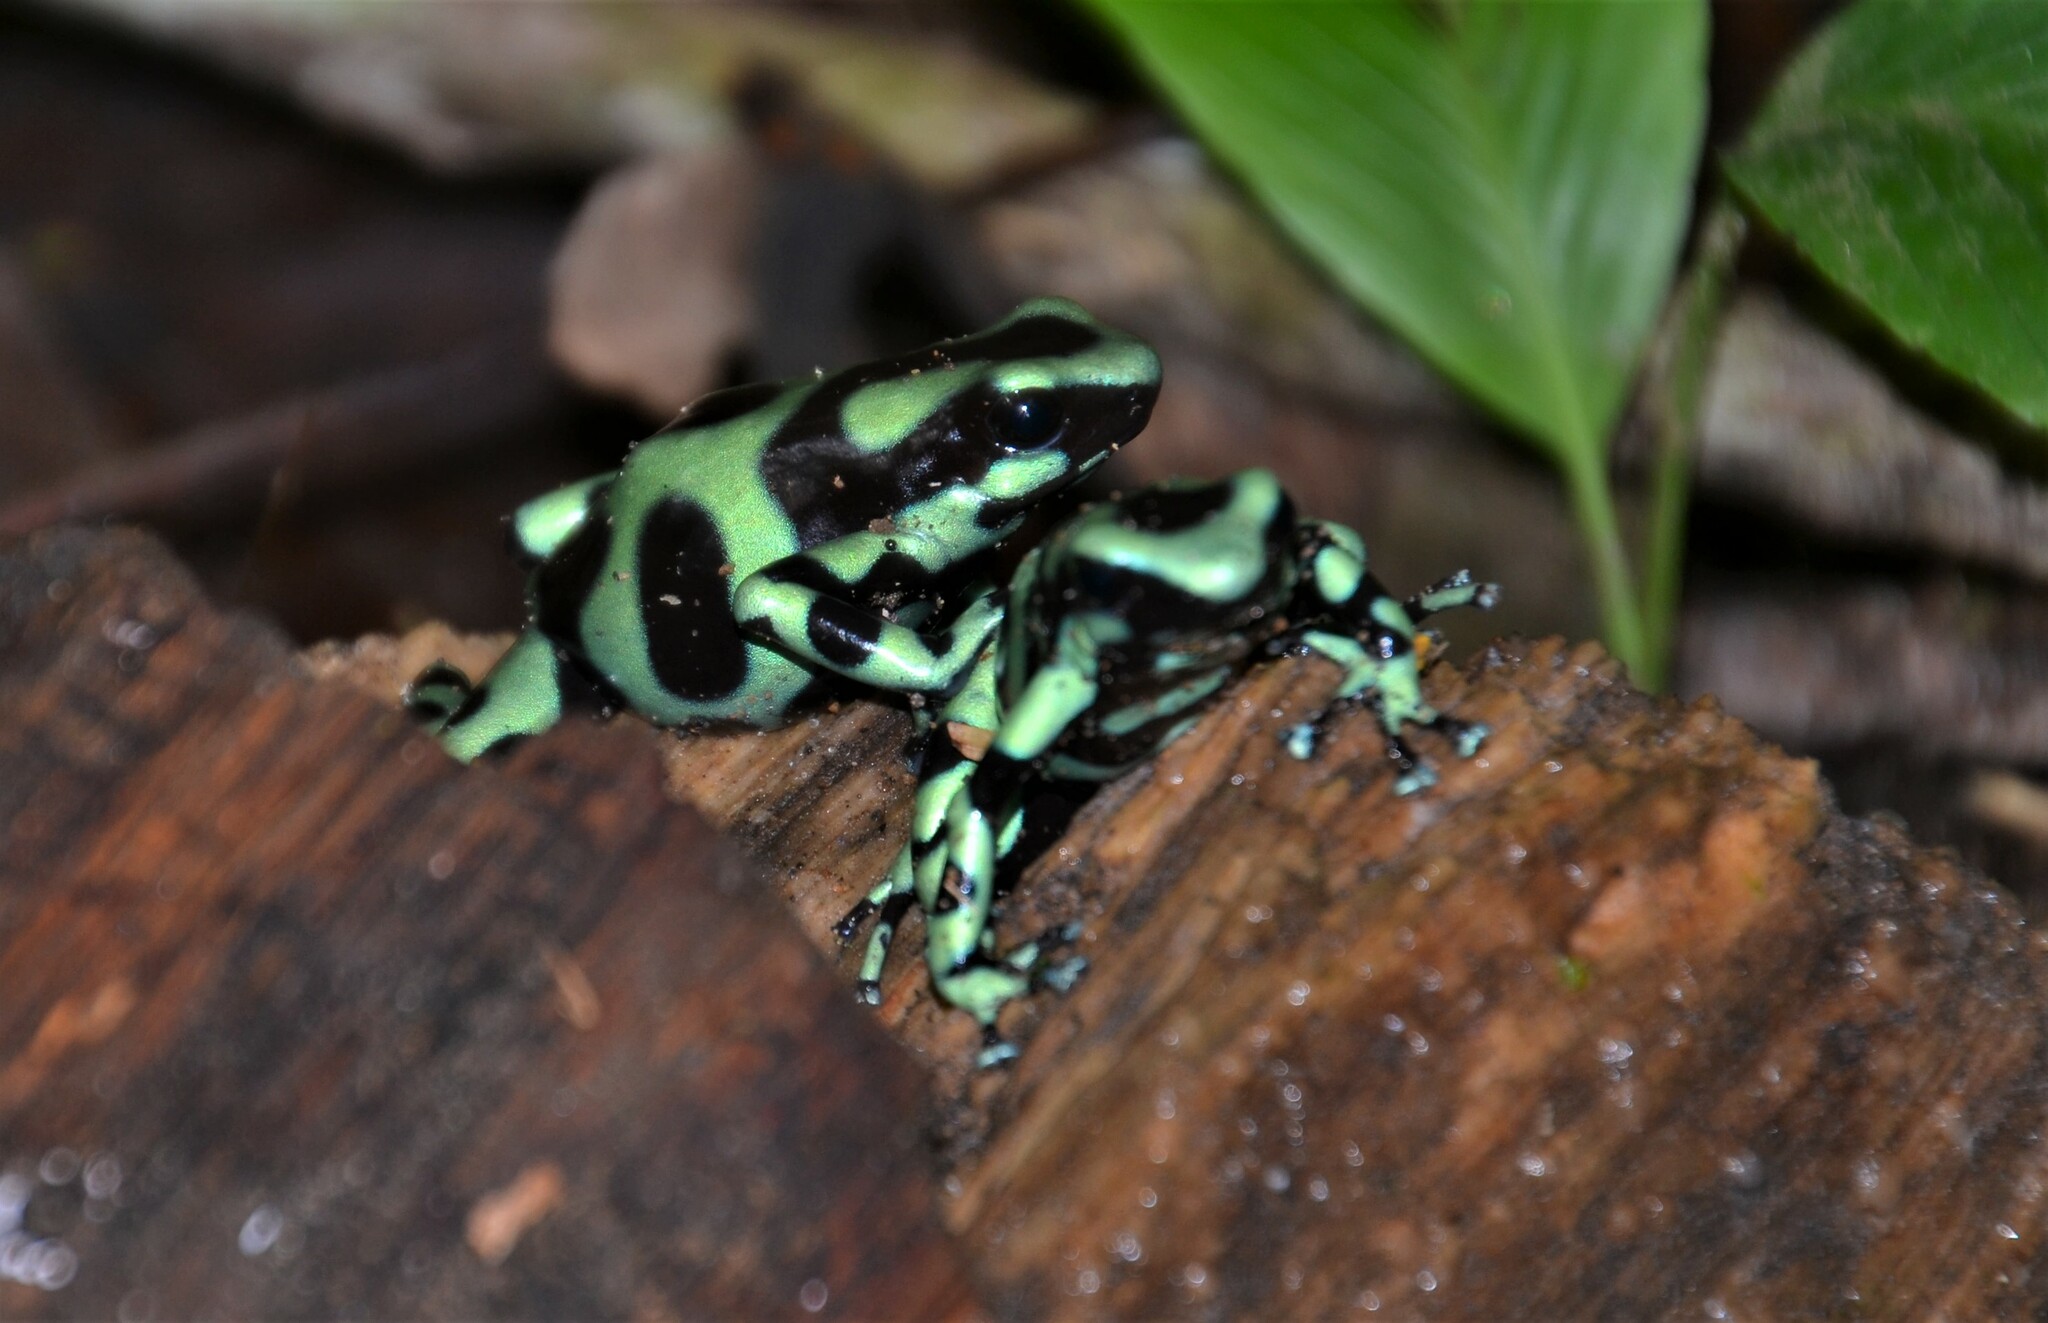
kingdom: Animalia
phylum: Chordata
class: Amphibia
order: Anura
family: Dendrobatidae
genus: Dendrobates
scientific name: Dendrobates auratus
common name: Green and black poison dart frog
